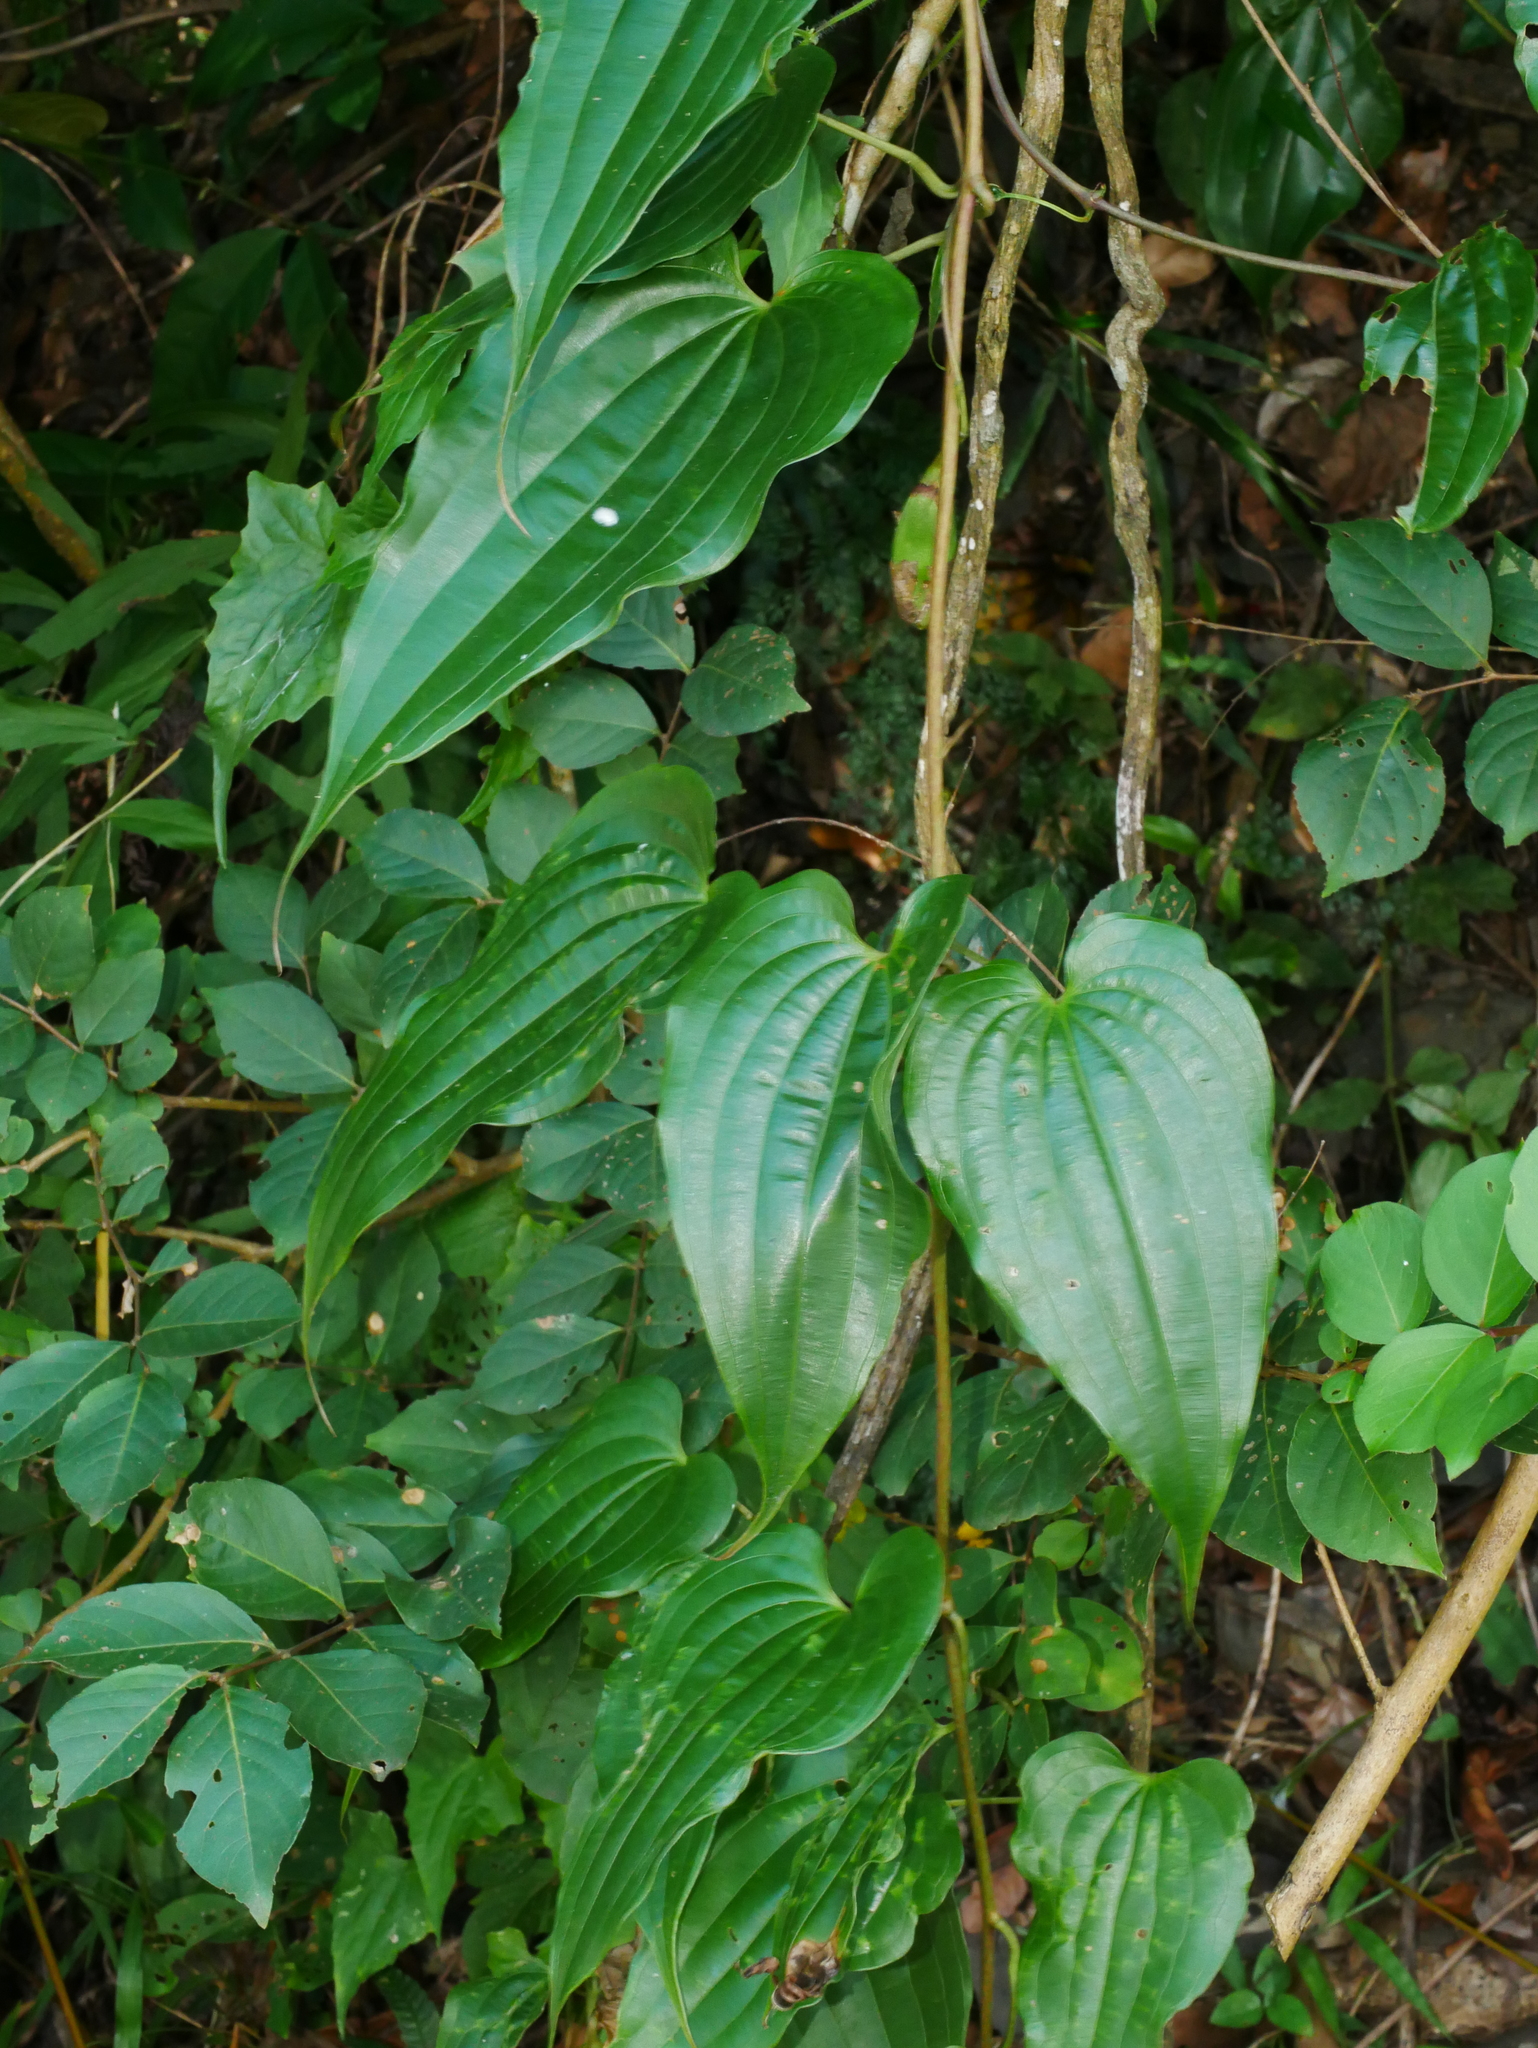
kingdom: Plantae
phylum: Tracheophyta
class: Liliopsida
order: Pandanales
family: Stemonaceae
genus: Stemona
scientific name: Stemona tuberosa
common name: Stemona
